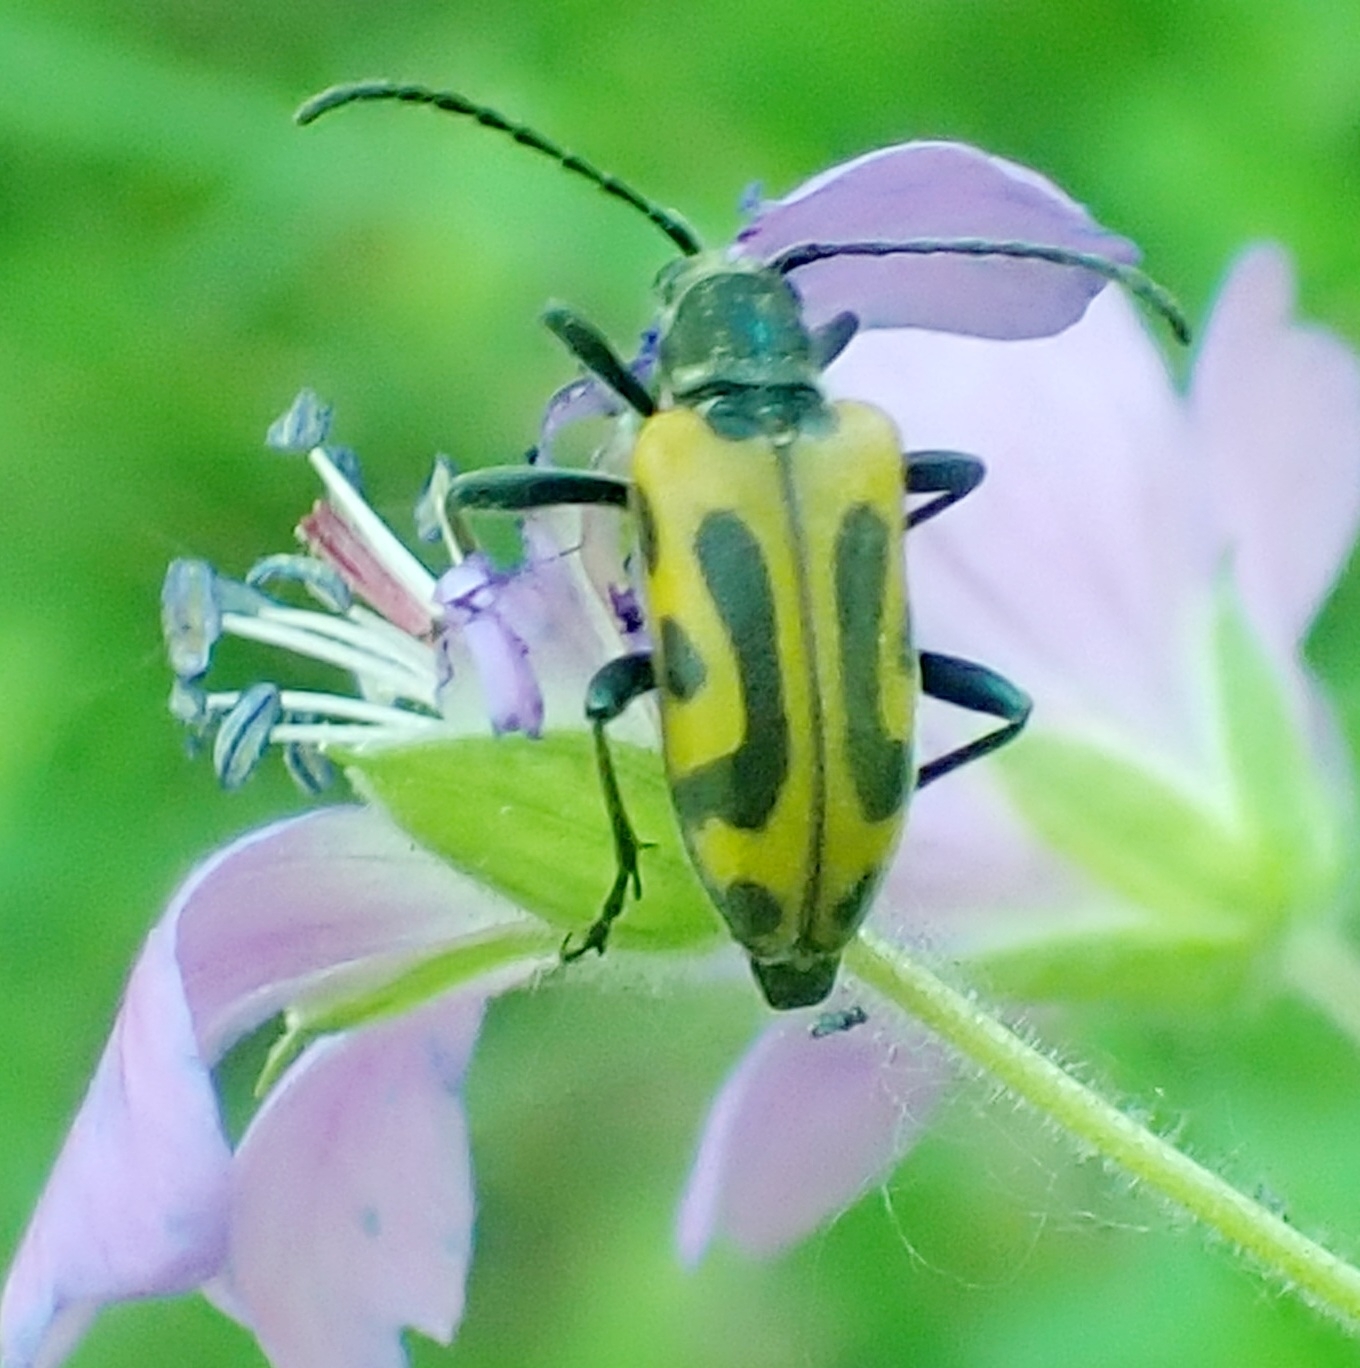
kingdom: Animalia
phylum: Arthropoda
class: Insecta
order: Coleoptera
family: Cerambycidae
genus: Brachyta
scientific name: Brachyta interrogationis
